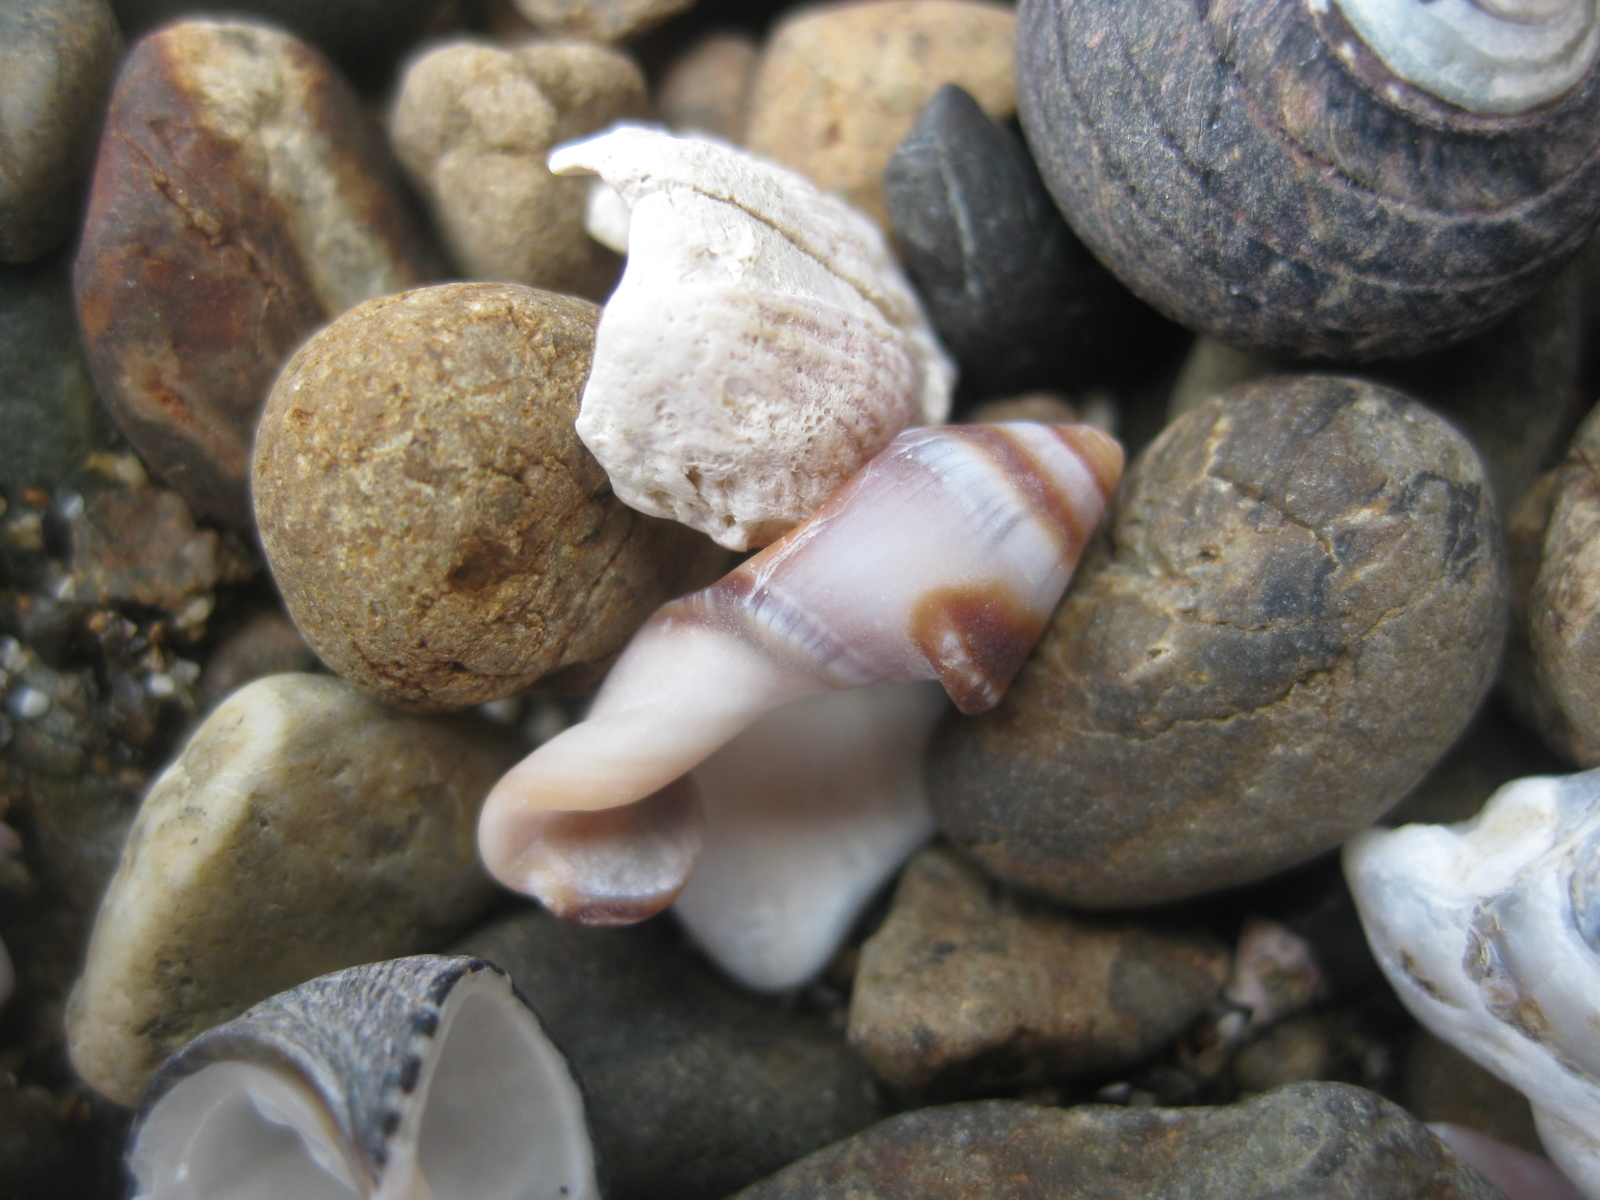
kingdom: Animalia
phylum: Mollusca
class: Gastropoda
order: Neogastropoda
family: Ancillariidae
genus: Amalda
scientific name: Amalda australis
